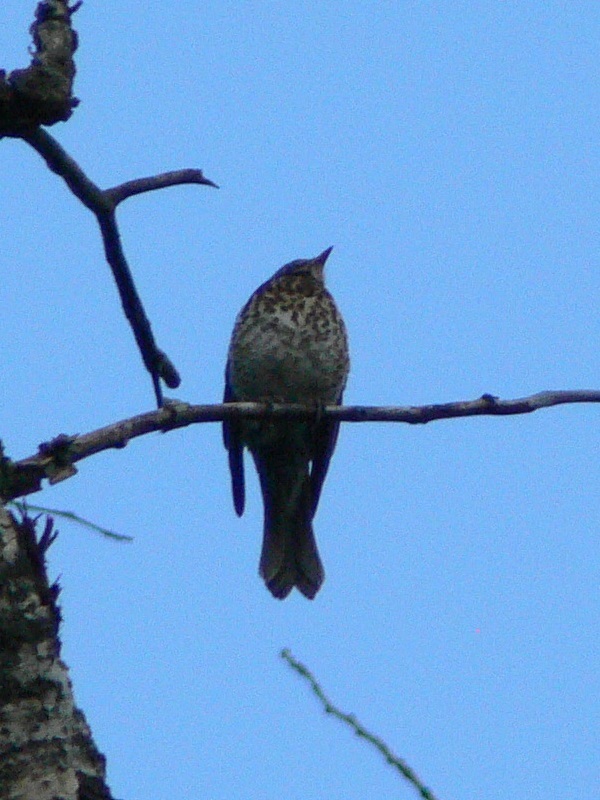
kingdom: Animalia
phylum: Chordata
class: Aves
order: Passeriformes
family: Turdidae
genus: Turdus
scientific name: Turdus philomelos
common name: Song thrush
